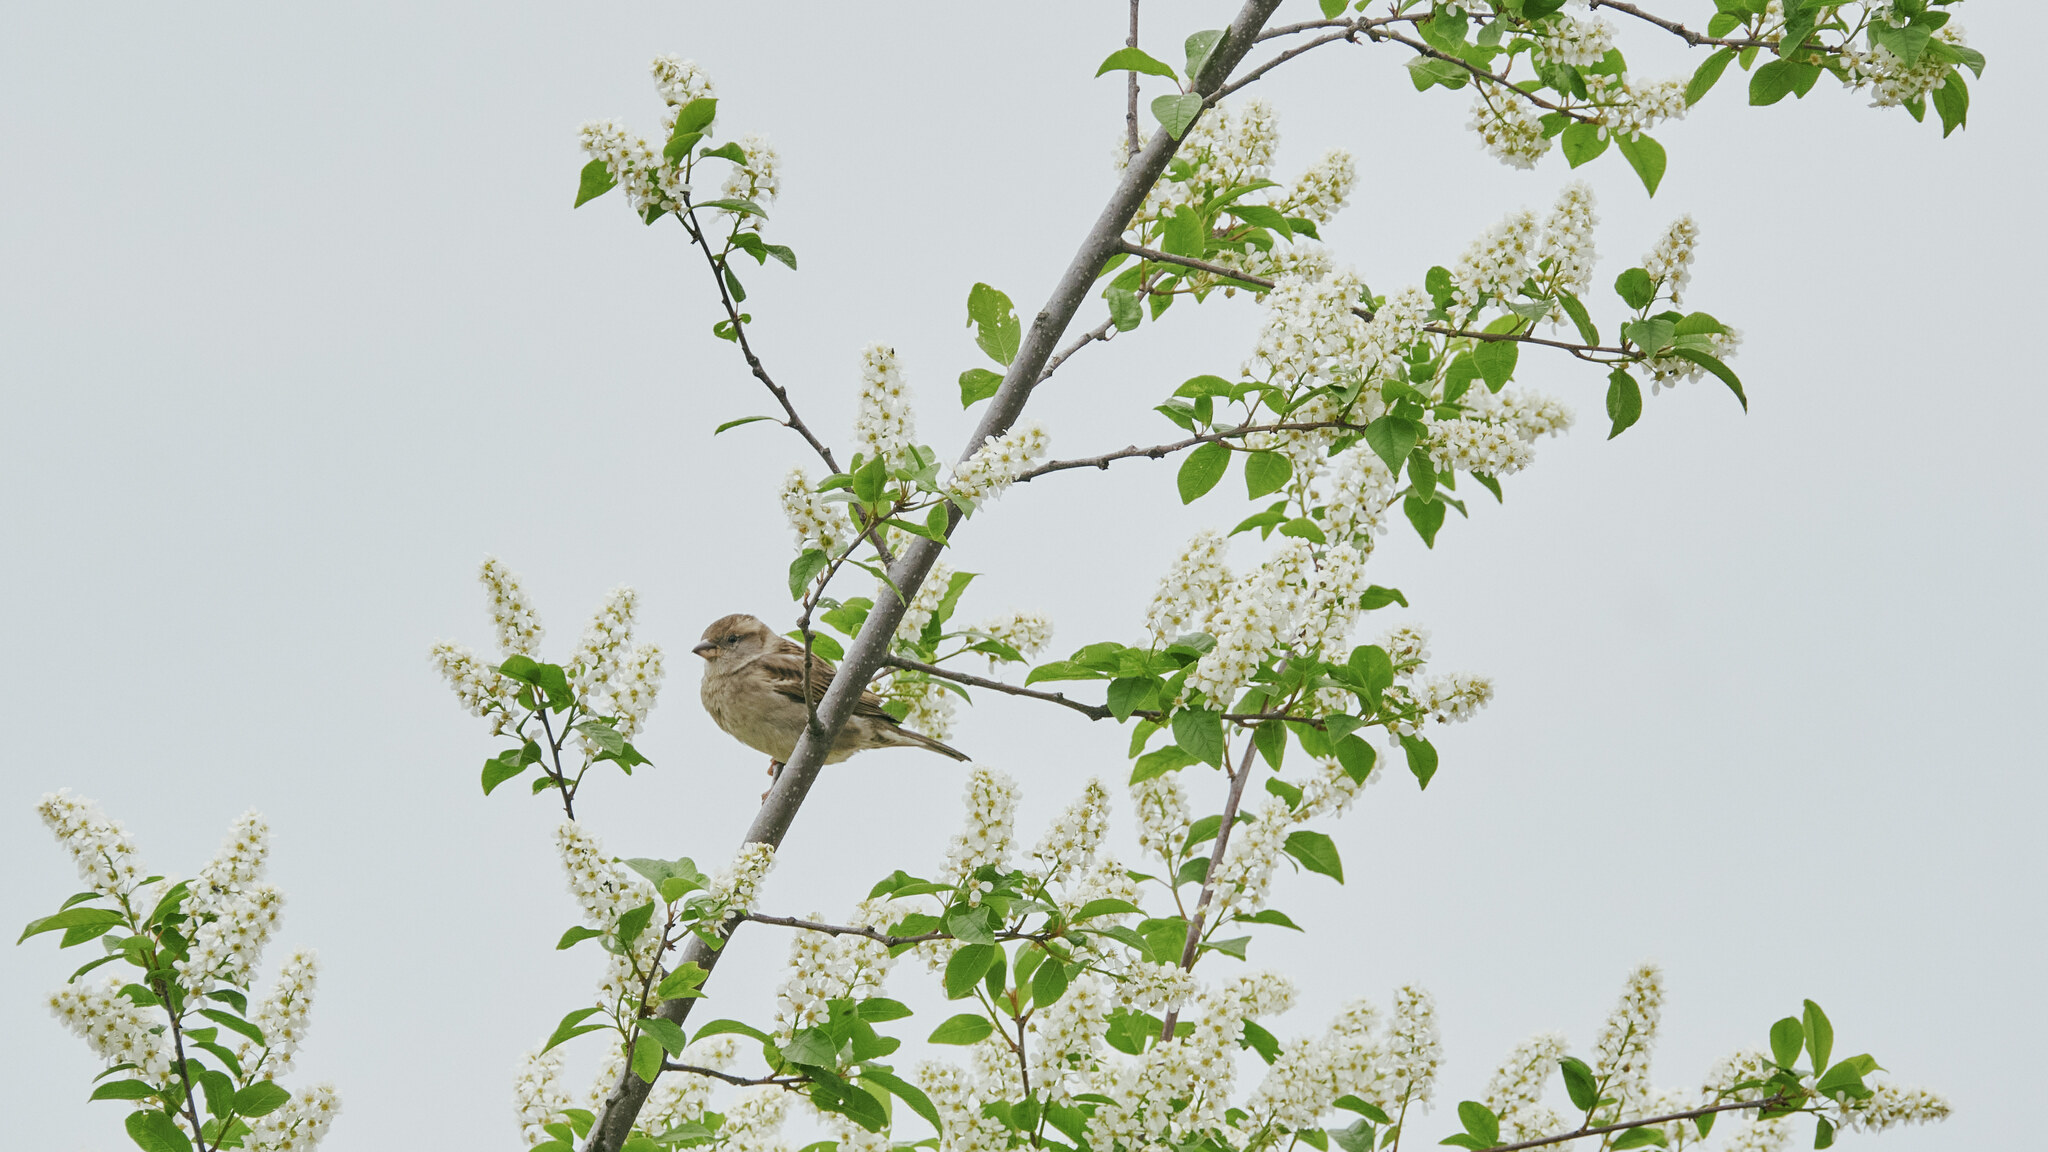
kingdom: Animalia
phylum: Chordata
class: Aves
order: Passeriformes
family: Passeridae
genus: Passer
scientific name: Passer domesticus
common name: House sparrow
